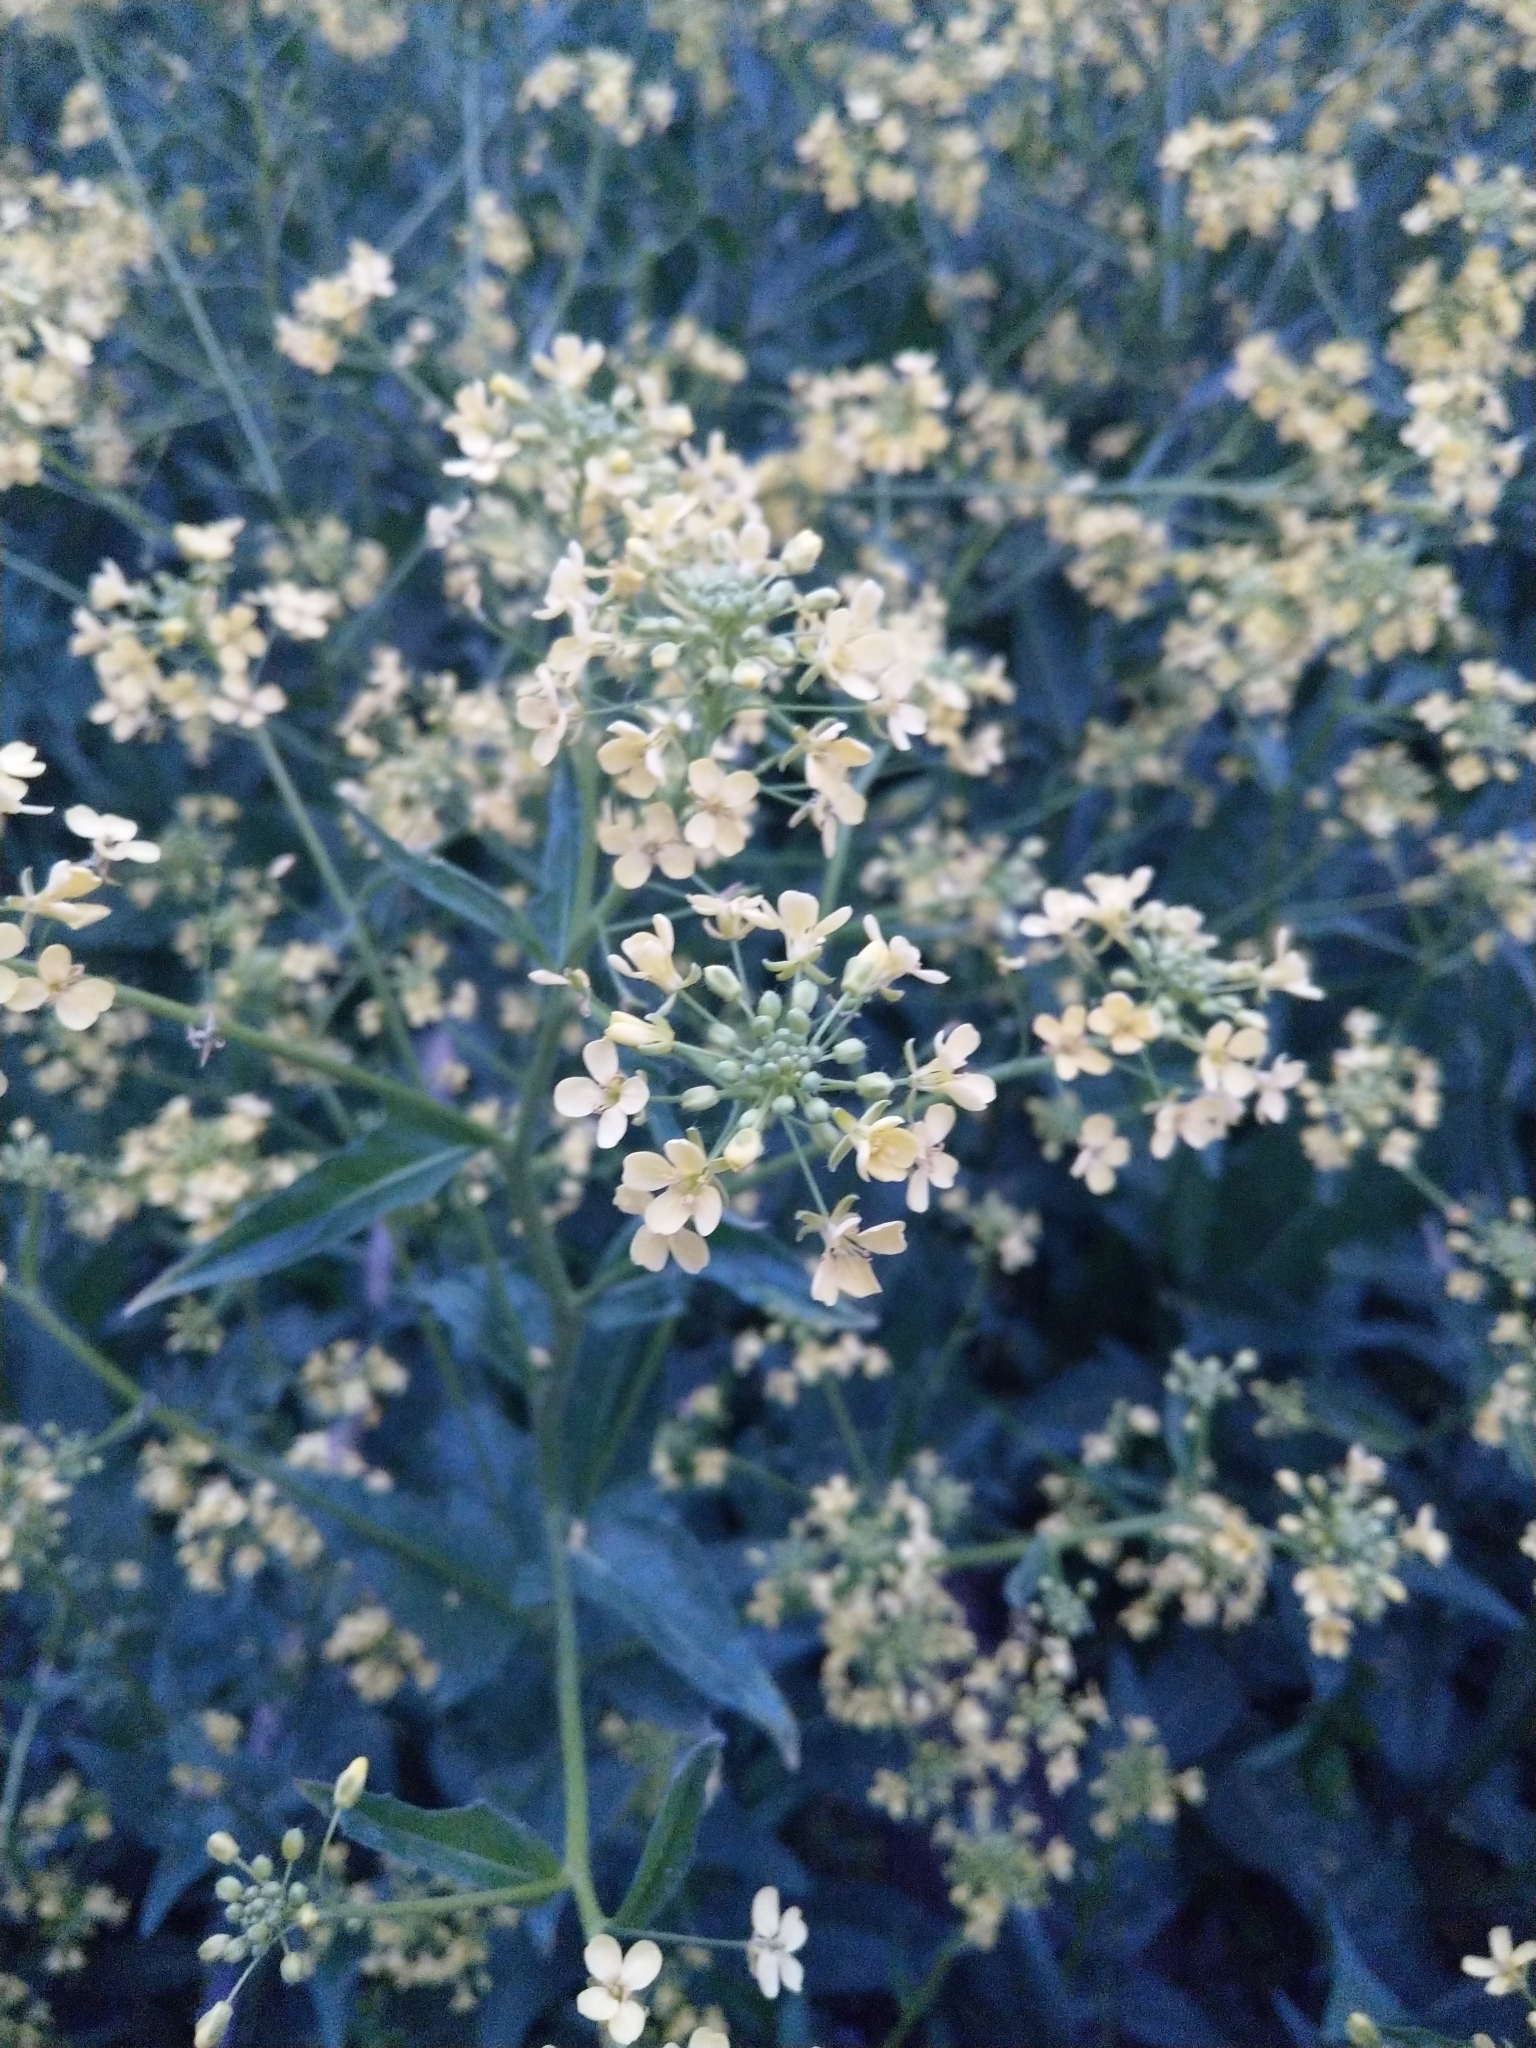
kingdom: Plantae
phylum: Tracheophyta
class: Magnoliopsida
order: Brassicales
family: Brassicaceae
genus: Bunias
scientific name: Bunias orientalis
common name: Warty-cabbage
